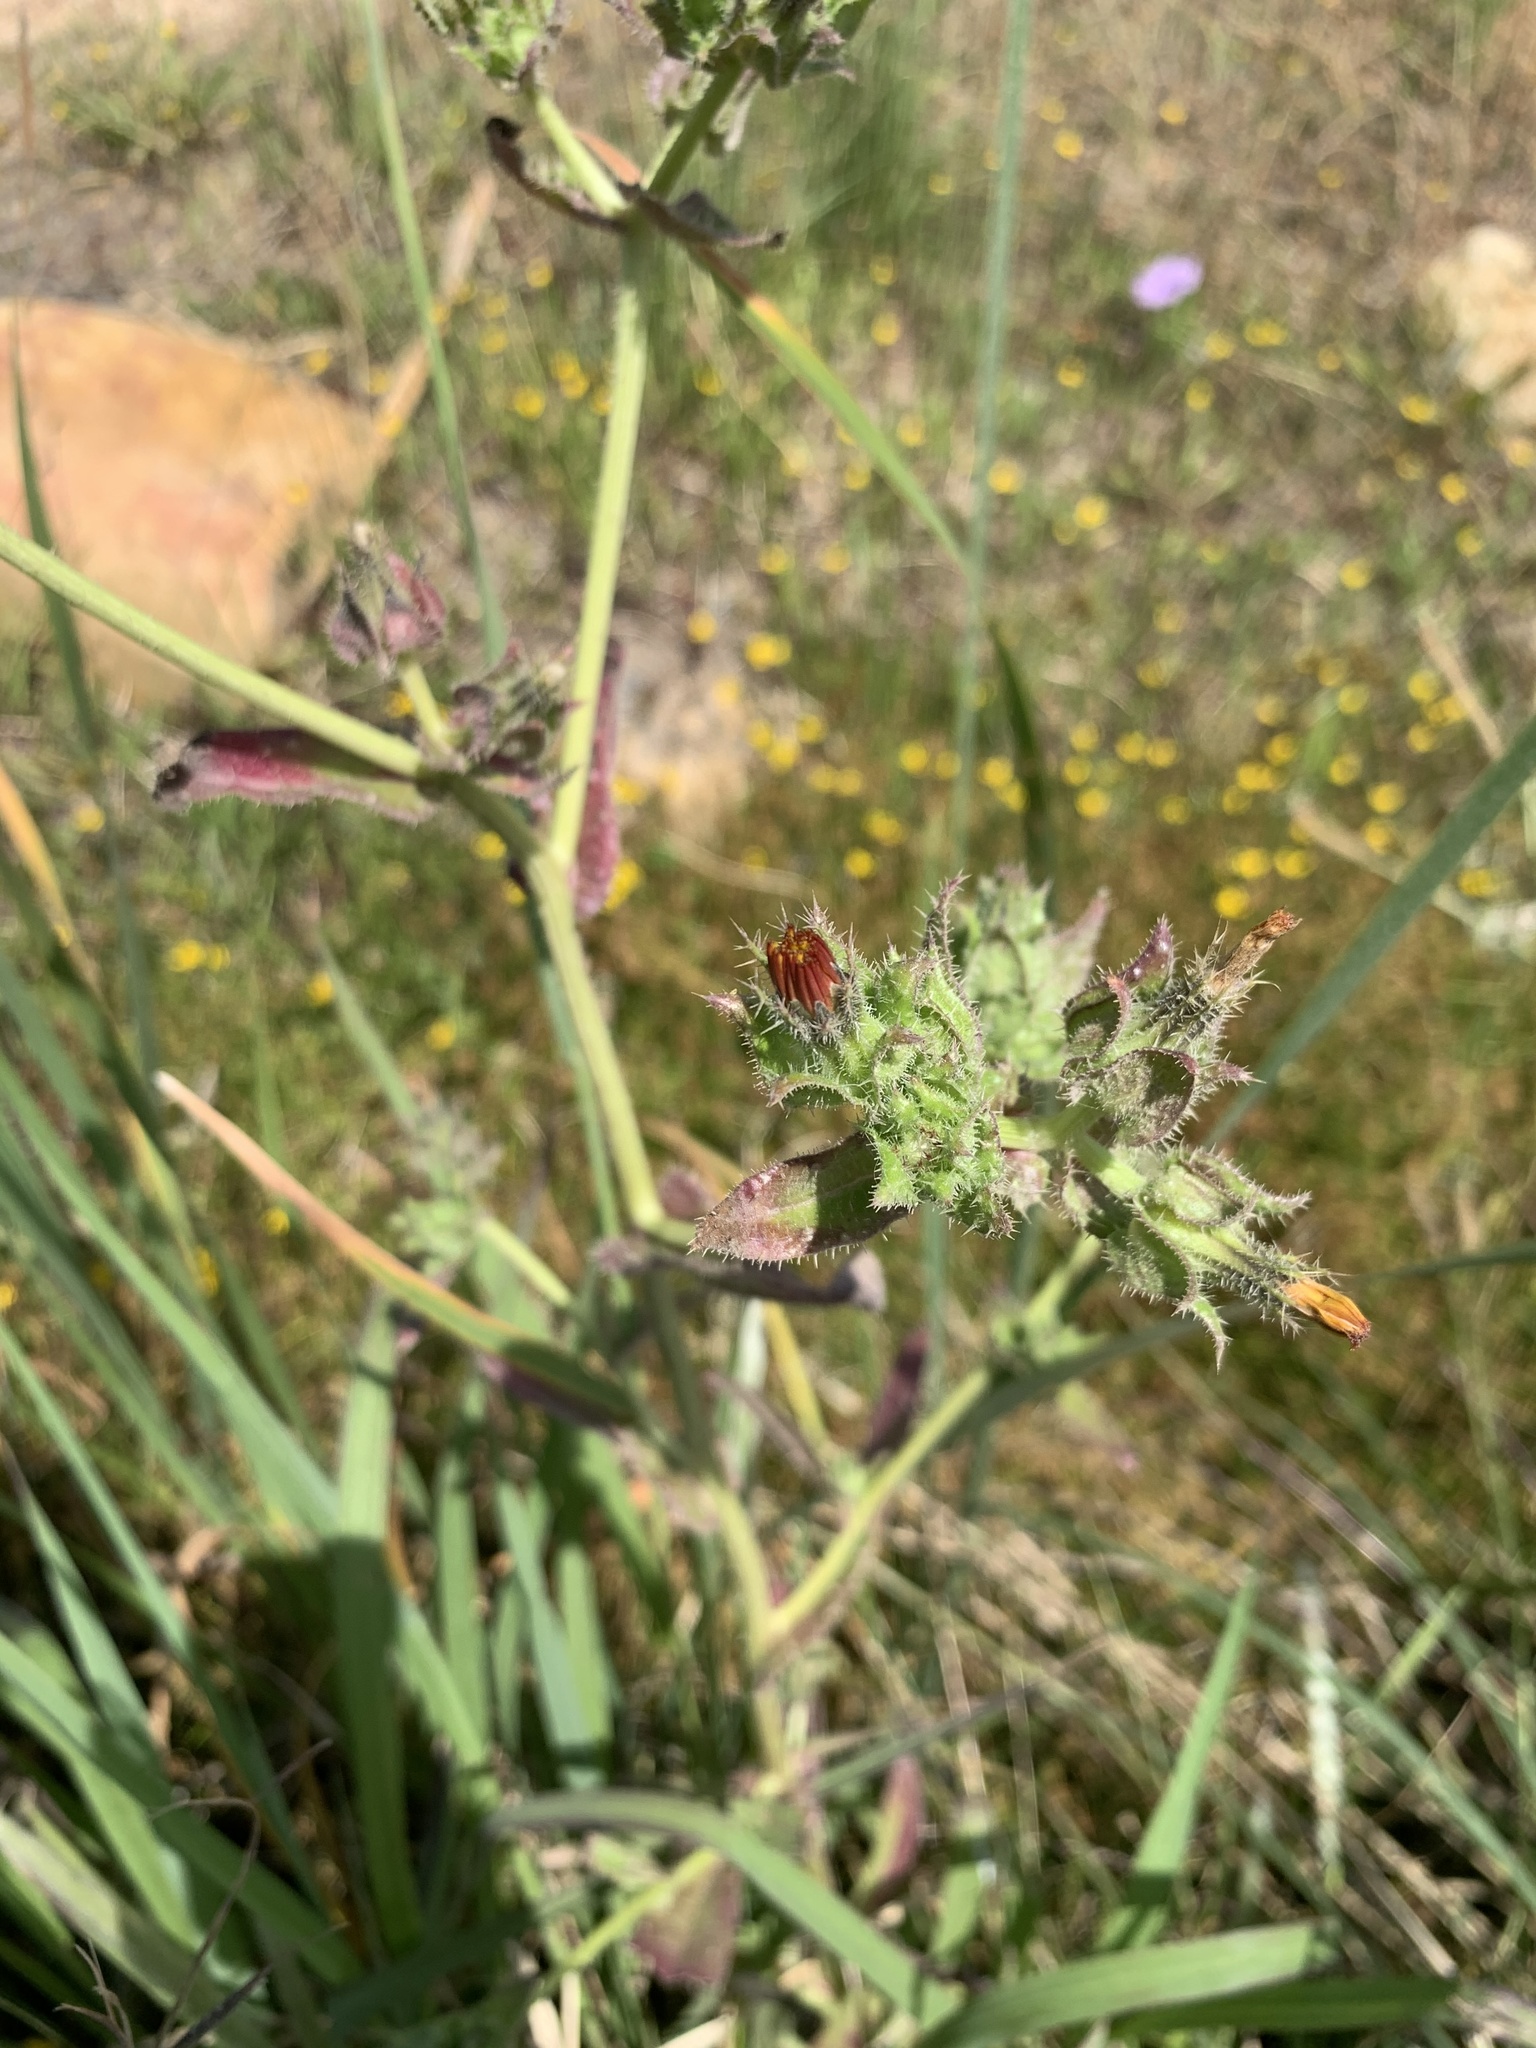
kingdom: Plantae
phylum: Tracheophyta
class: Magnoliopsida
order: Asterales
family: Asteraceae
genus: Helminthotheca
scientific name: Helminthotheca echioides
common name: Ox-tongue
